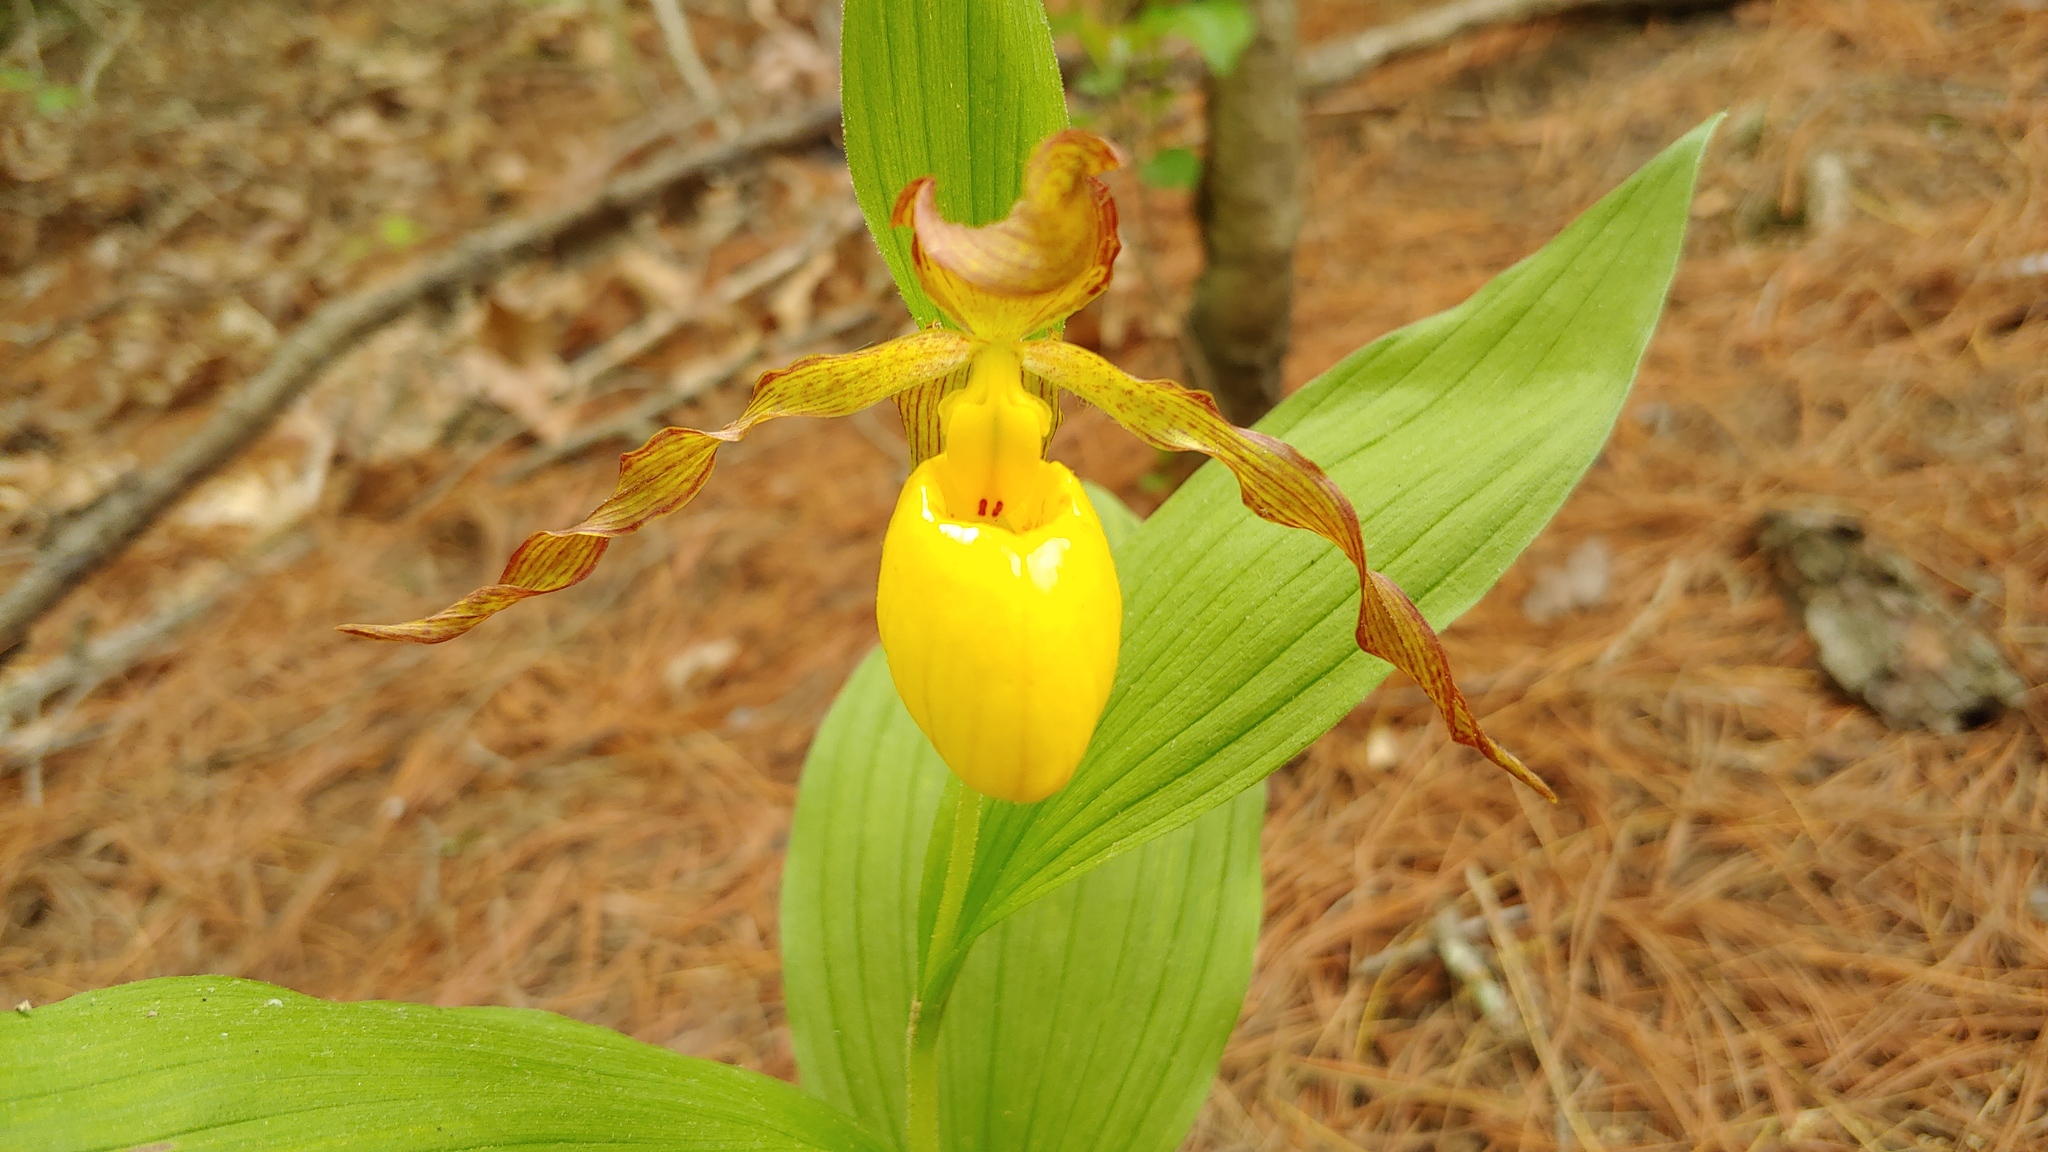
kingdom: Plantae
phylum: Tracheophyta
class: Liliopsida
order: Asparagales
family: Orchidaceae
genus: Cypripedium
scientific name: Cypripedium parviflorum
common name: American yellow lady's-slipper
